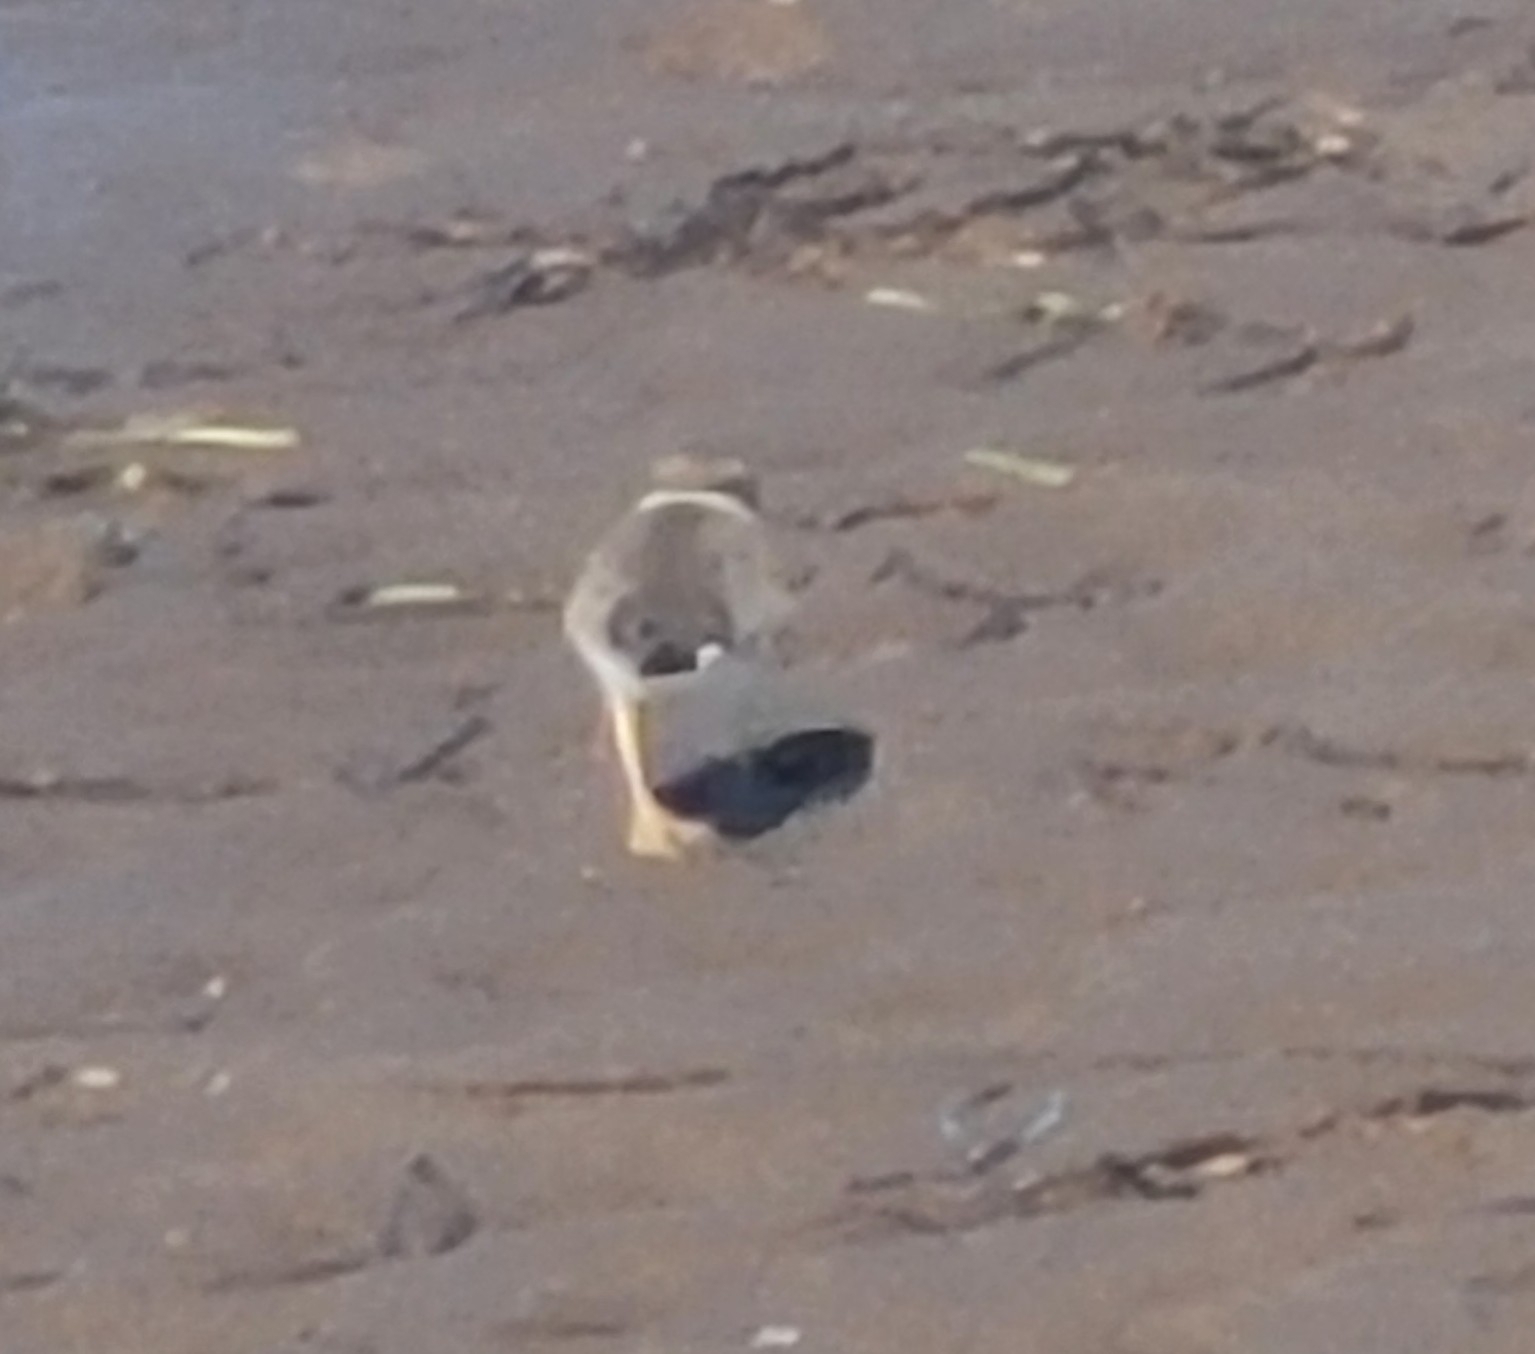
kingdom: Animalia
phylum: Chordata
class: Aves
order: Charadriiformes
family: Charadriidae
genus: Charadrius
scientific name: Charadrius semipalmatus
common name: Semipalmated plover
